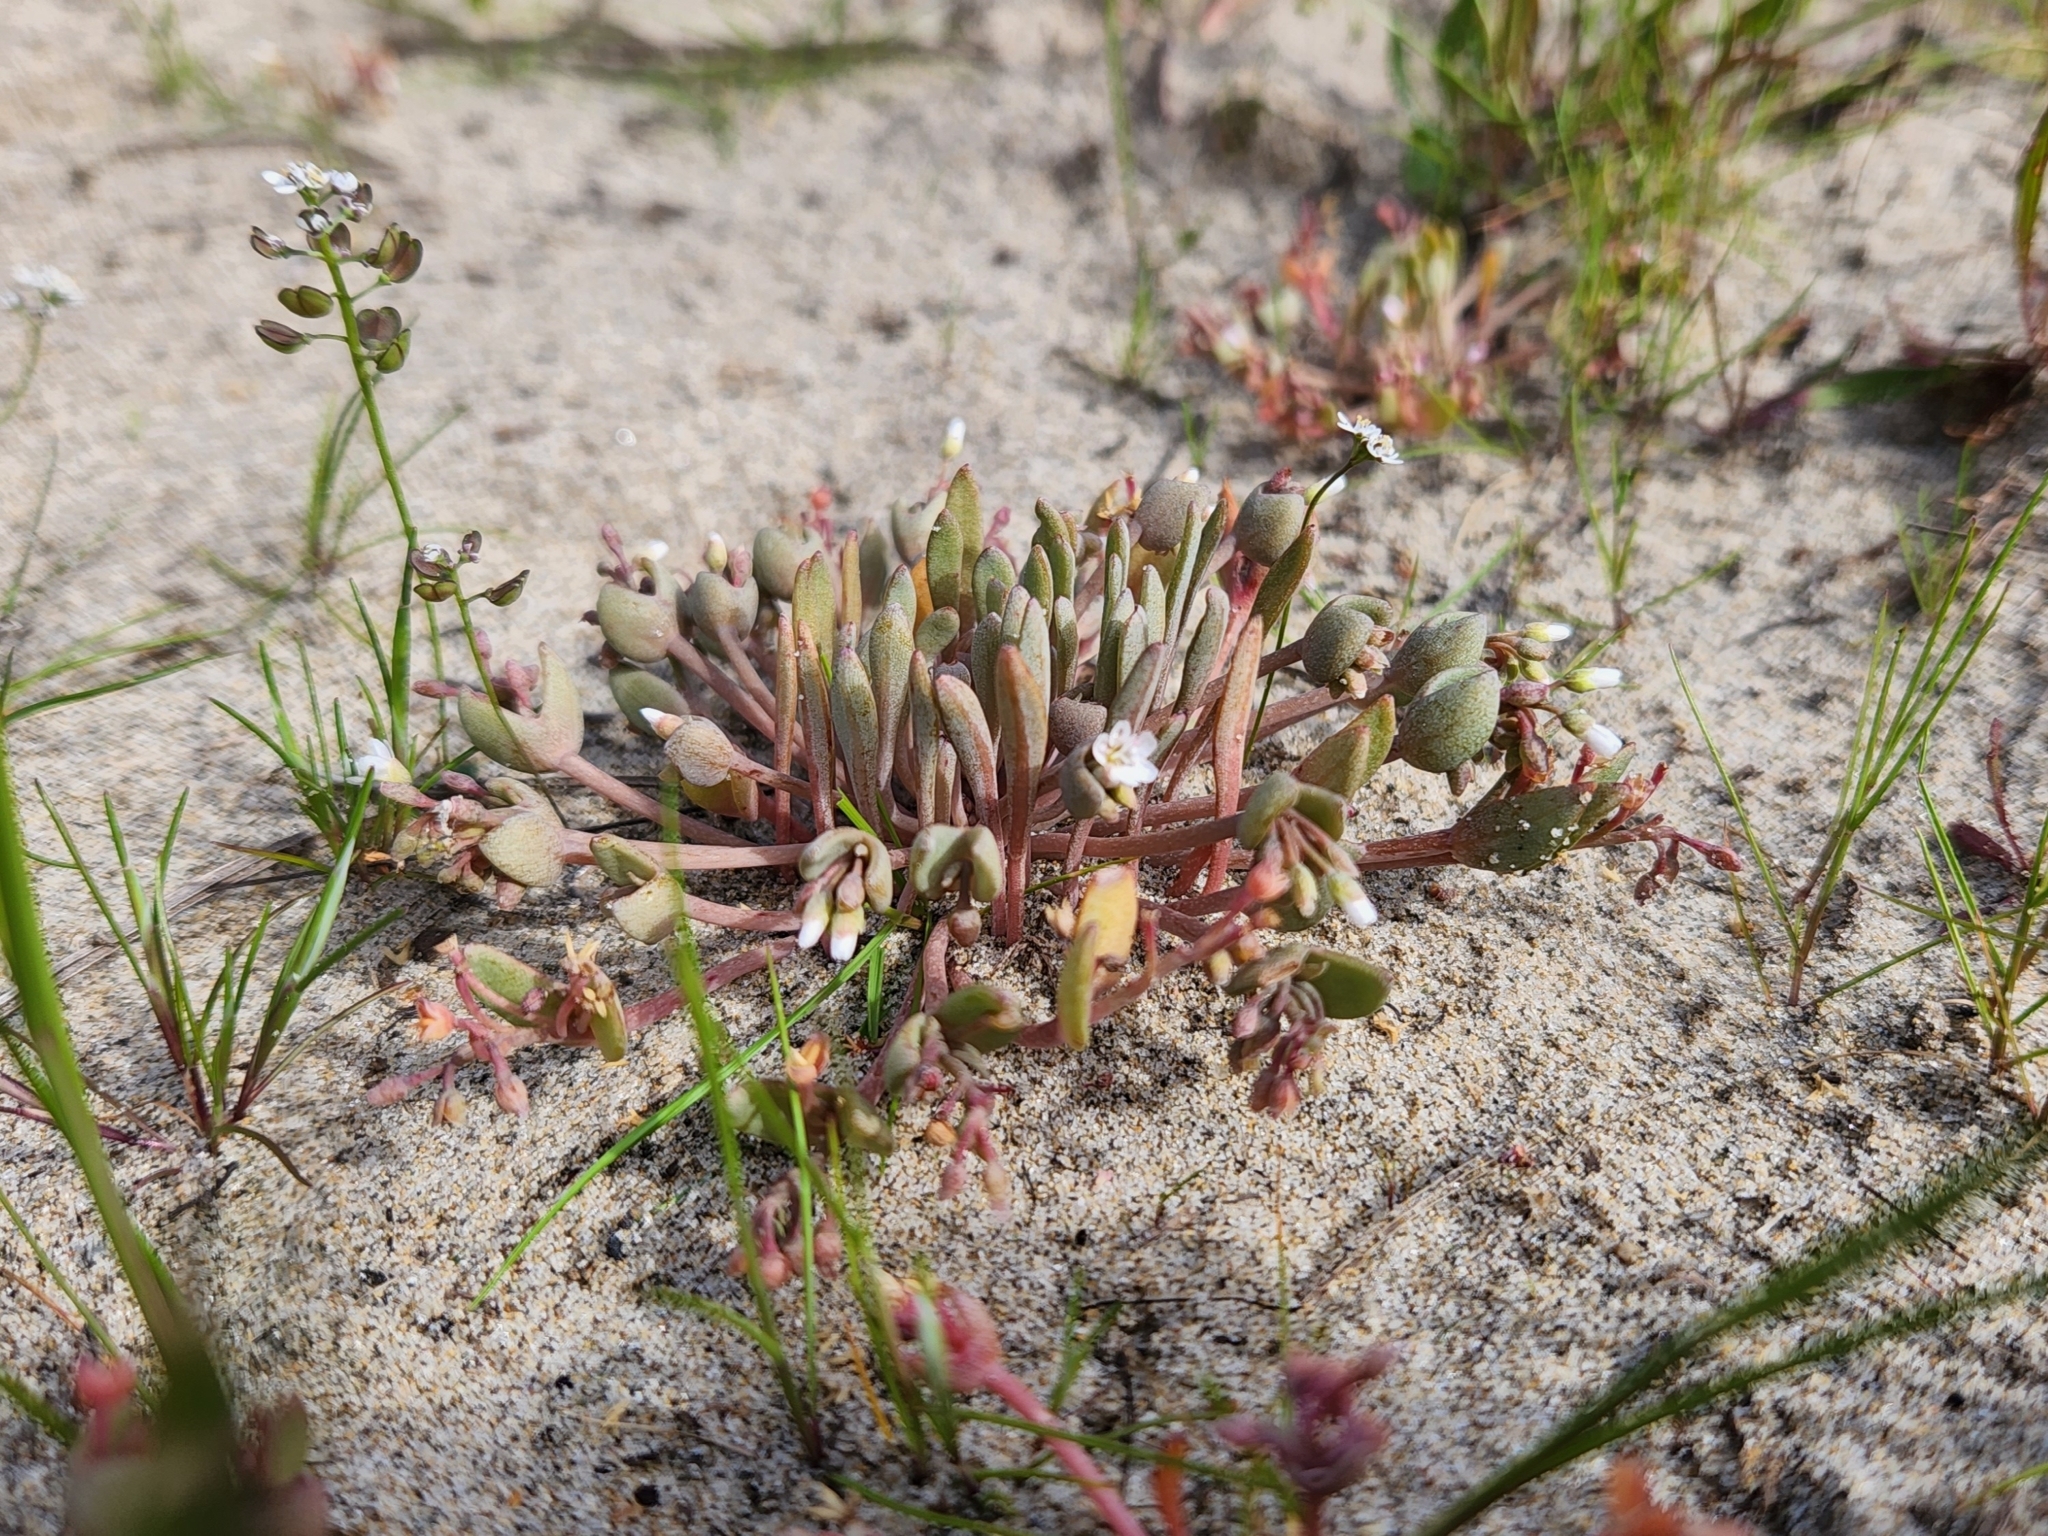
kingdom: Plantae
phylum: Tracheophyta
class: Magnoliopsida
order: Caryophyllales
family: Montiaceae
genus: Claytonia
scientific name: Claytonia exigua
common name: Pale spring beauty
